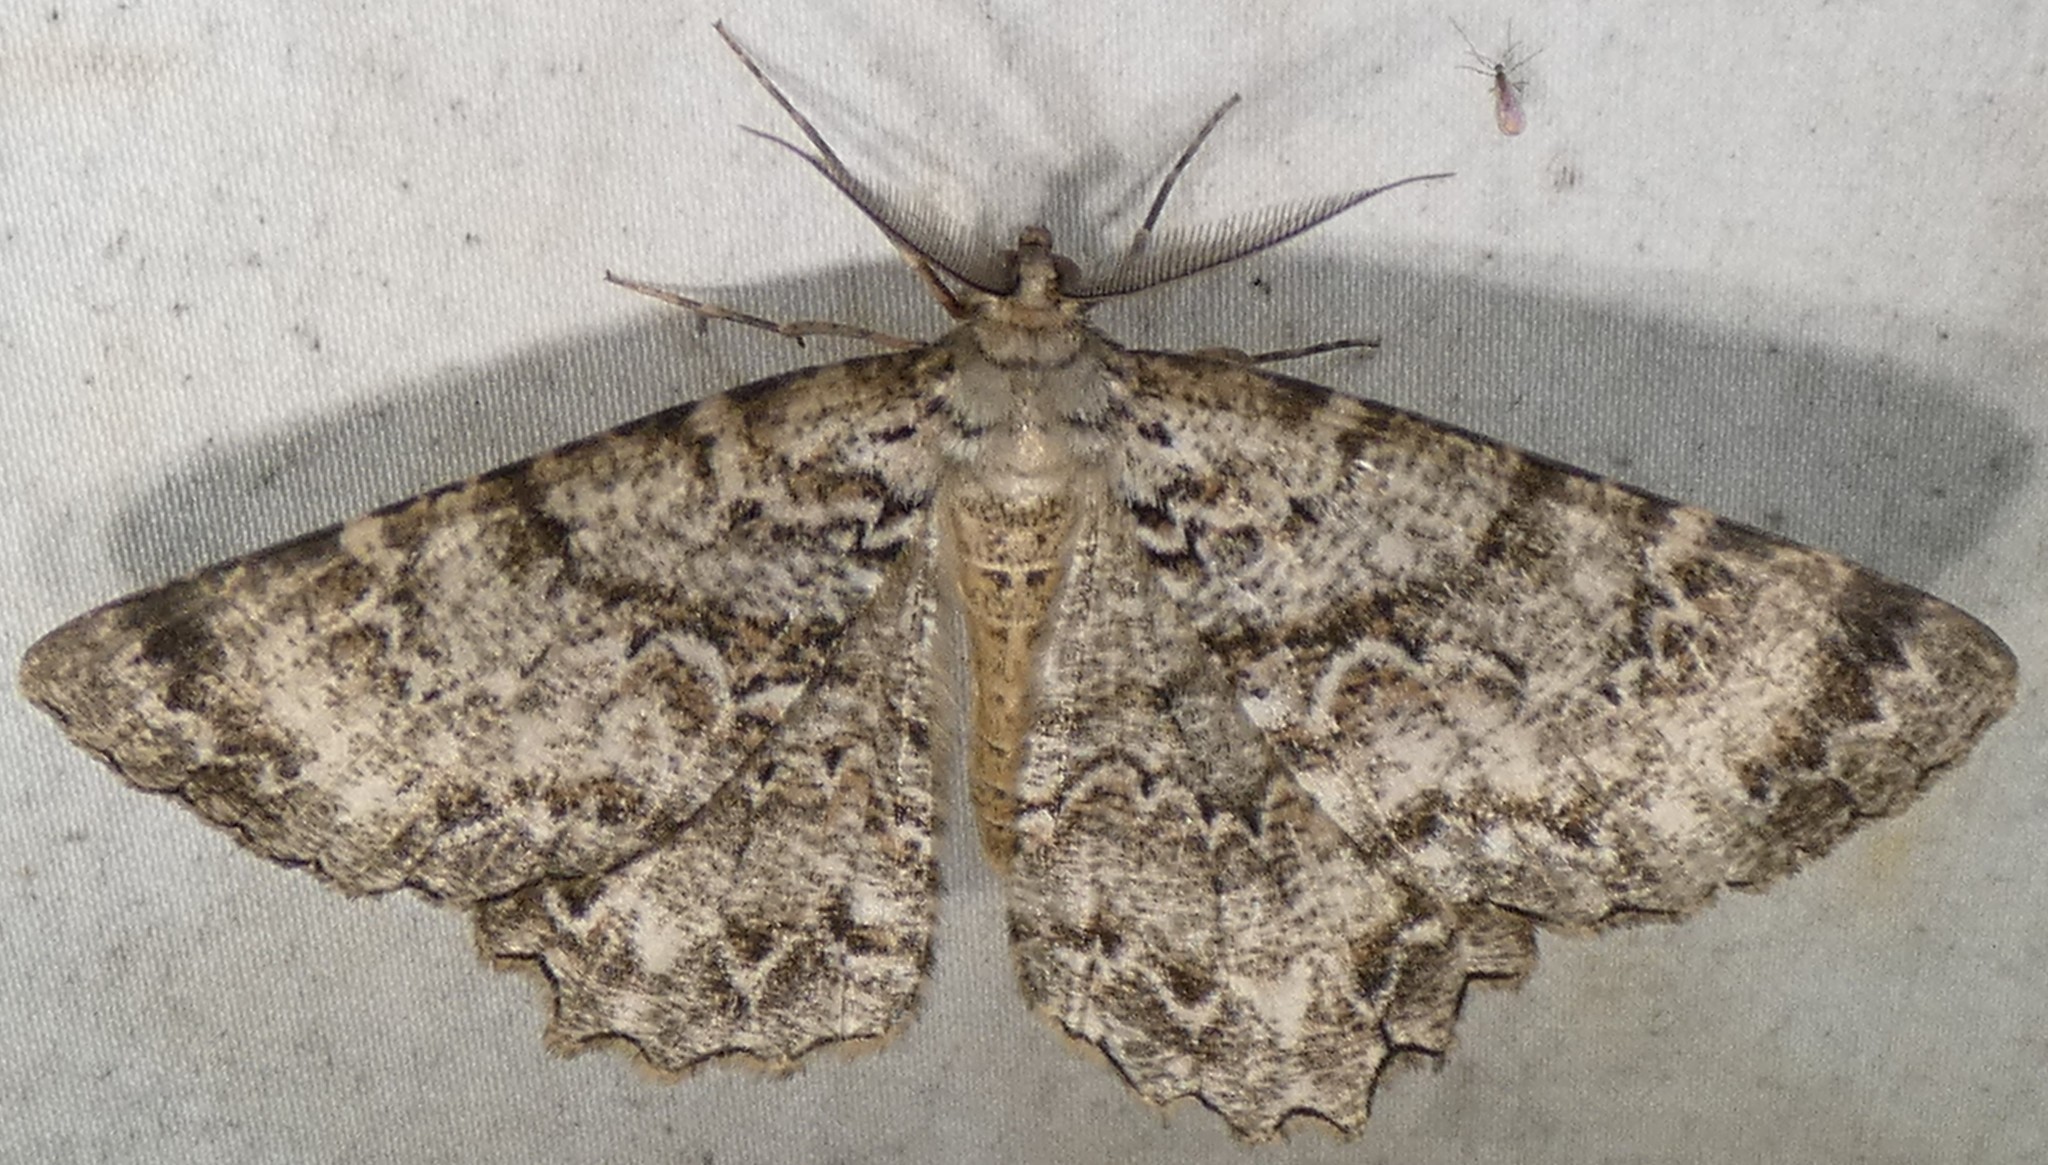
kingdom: Animalia
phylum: Arthropoda
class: Insecta
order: Lepidoptera
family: Geometridae
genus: Epimecis
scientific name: Epimecis hortaria
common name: Tulip-tree beauty
